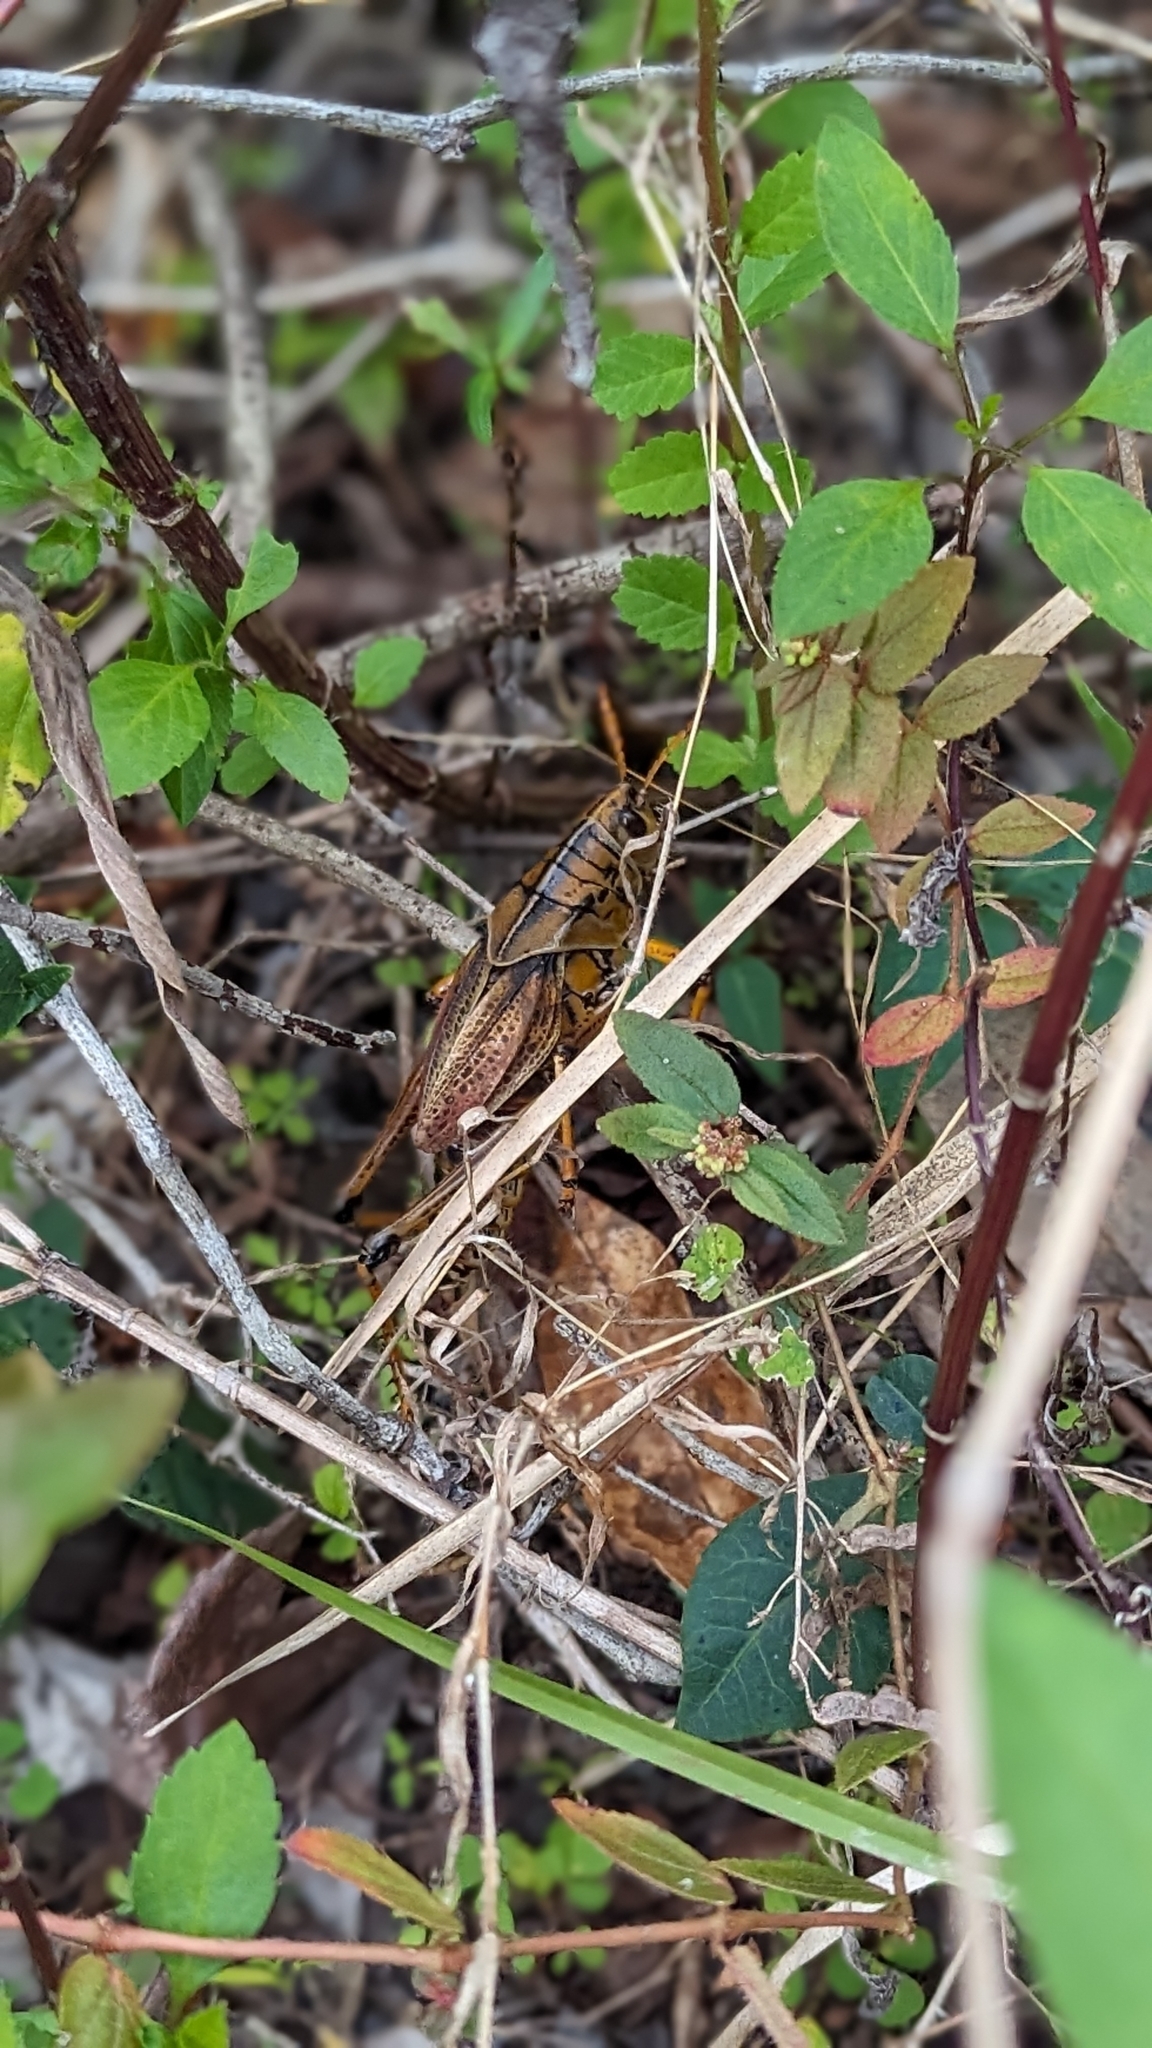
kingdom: Animalia
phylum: Arthropoda
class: Insecta
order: Orthoptera
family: Romaleidae
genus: Romalea
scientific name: Romalea microptera
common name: Eastern lubber grasshopper
